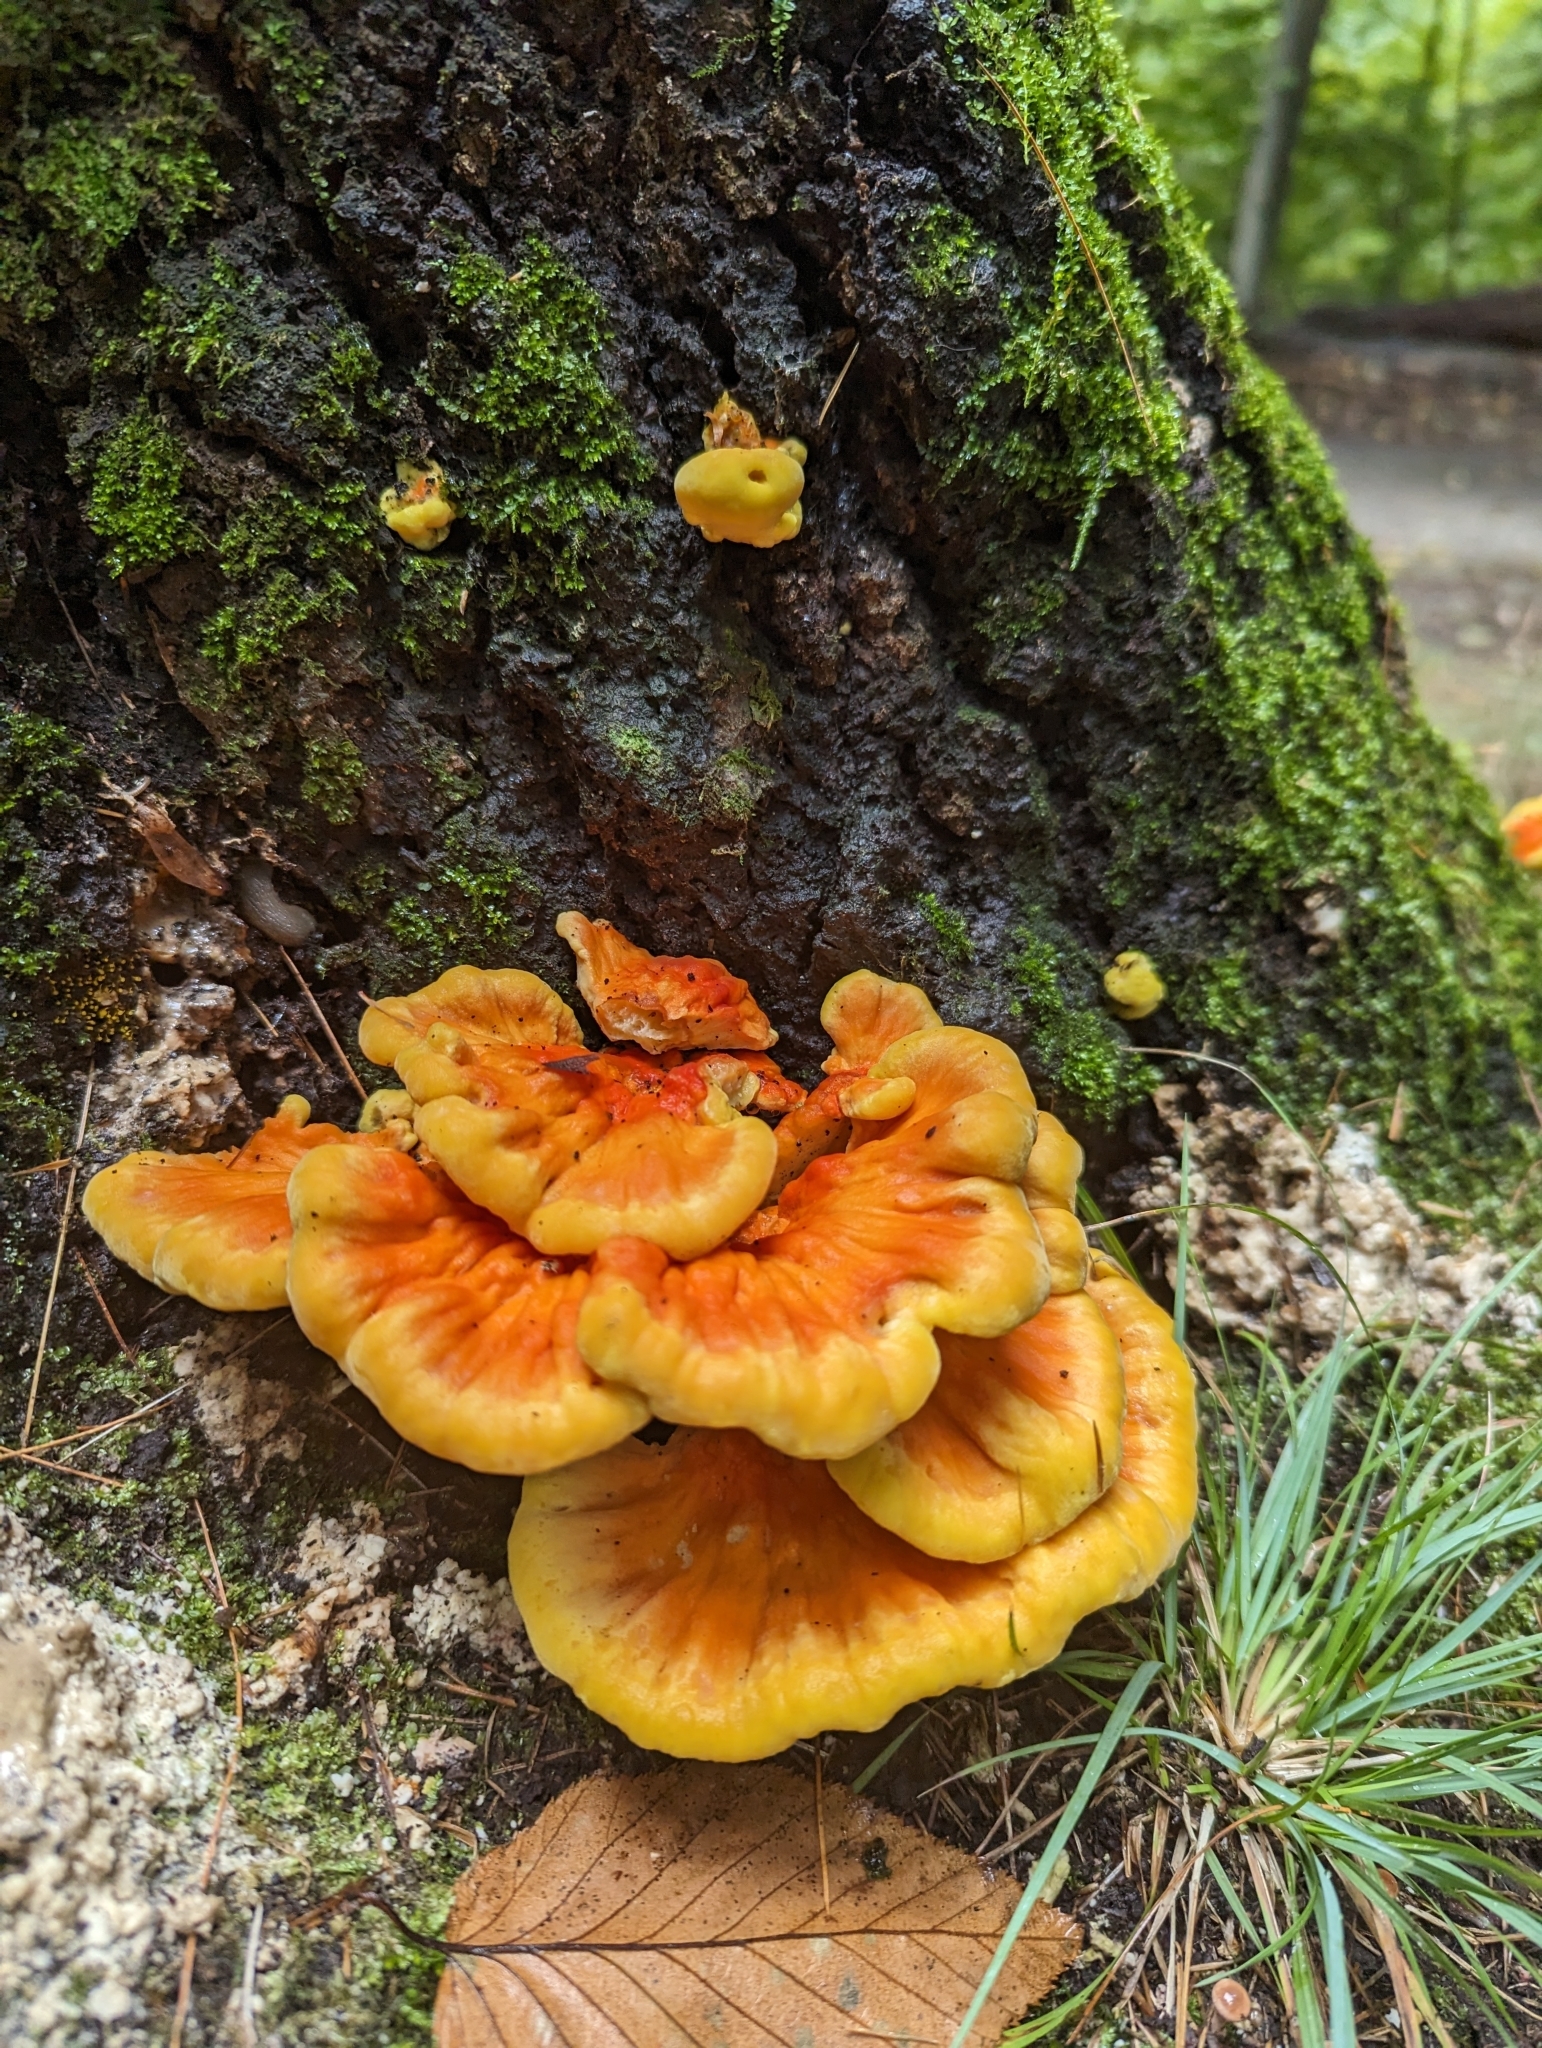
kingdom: Fungi
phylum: Basidiomycota
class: Agaricomycetes
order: Polyporales
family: Laetiporaceae
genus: Laetiporus
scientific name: Laetiporus sulphureus
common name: Chicken of the woods
